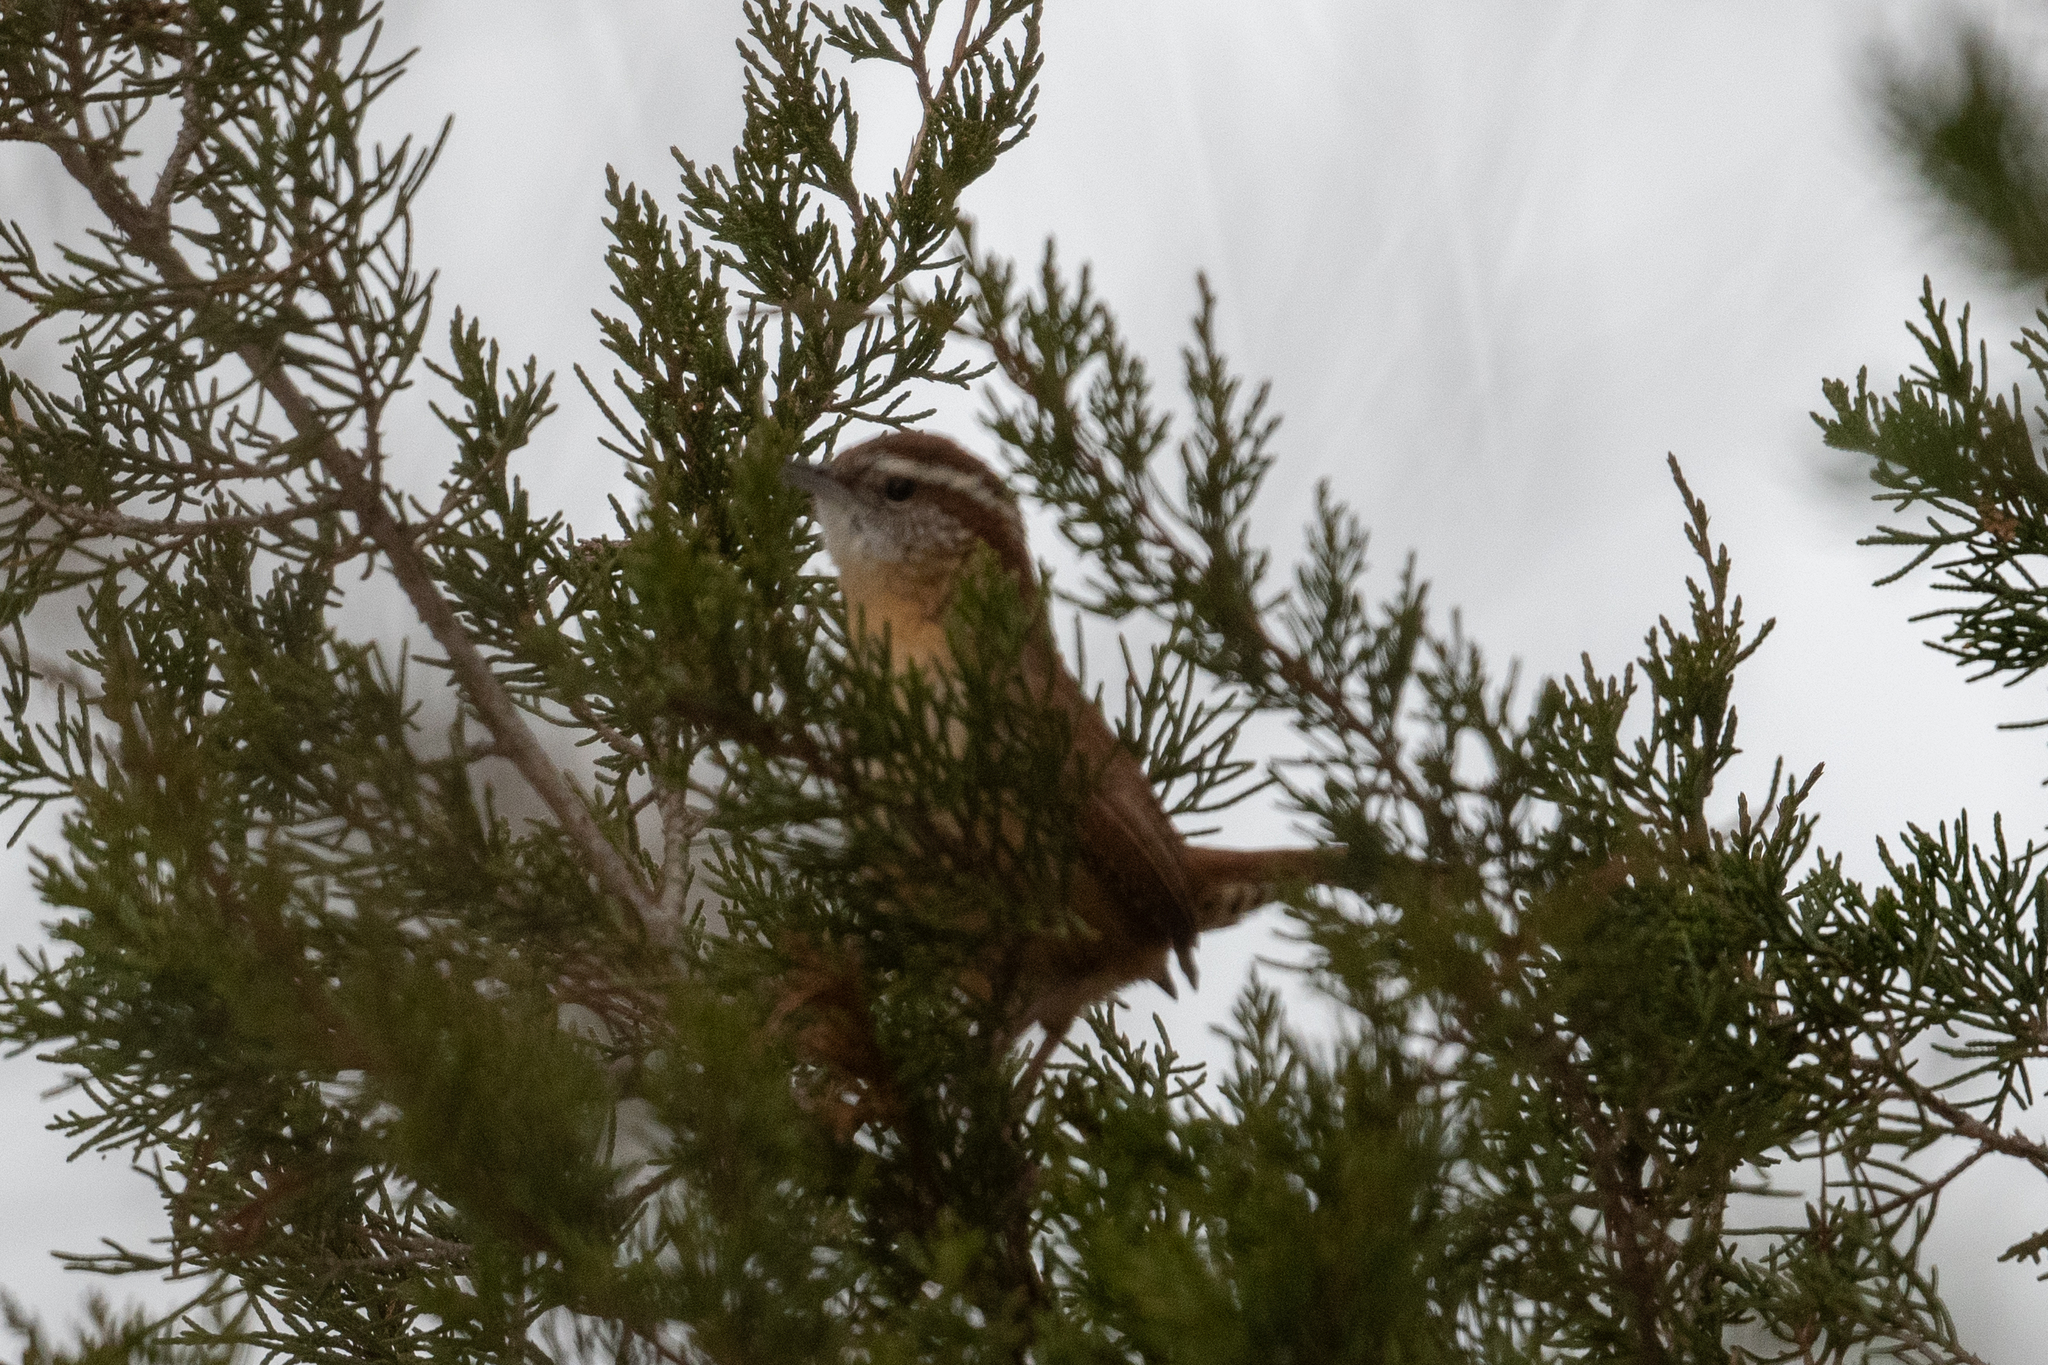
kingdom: Animalia
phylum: Chordata
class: Aves
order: Passeriformes
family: Troglodytidae
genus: Thryothorus
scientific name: Thryothorus ludovicianus
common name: Carolina wren
